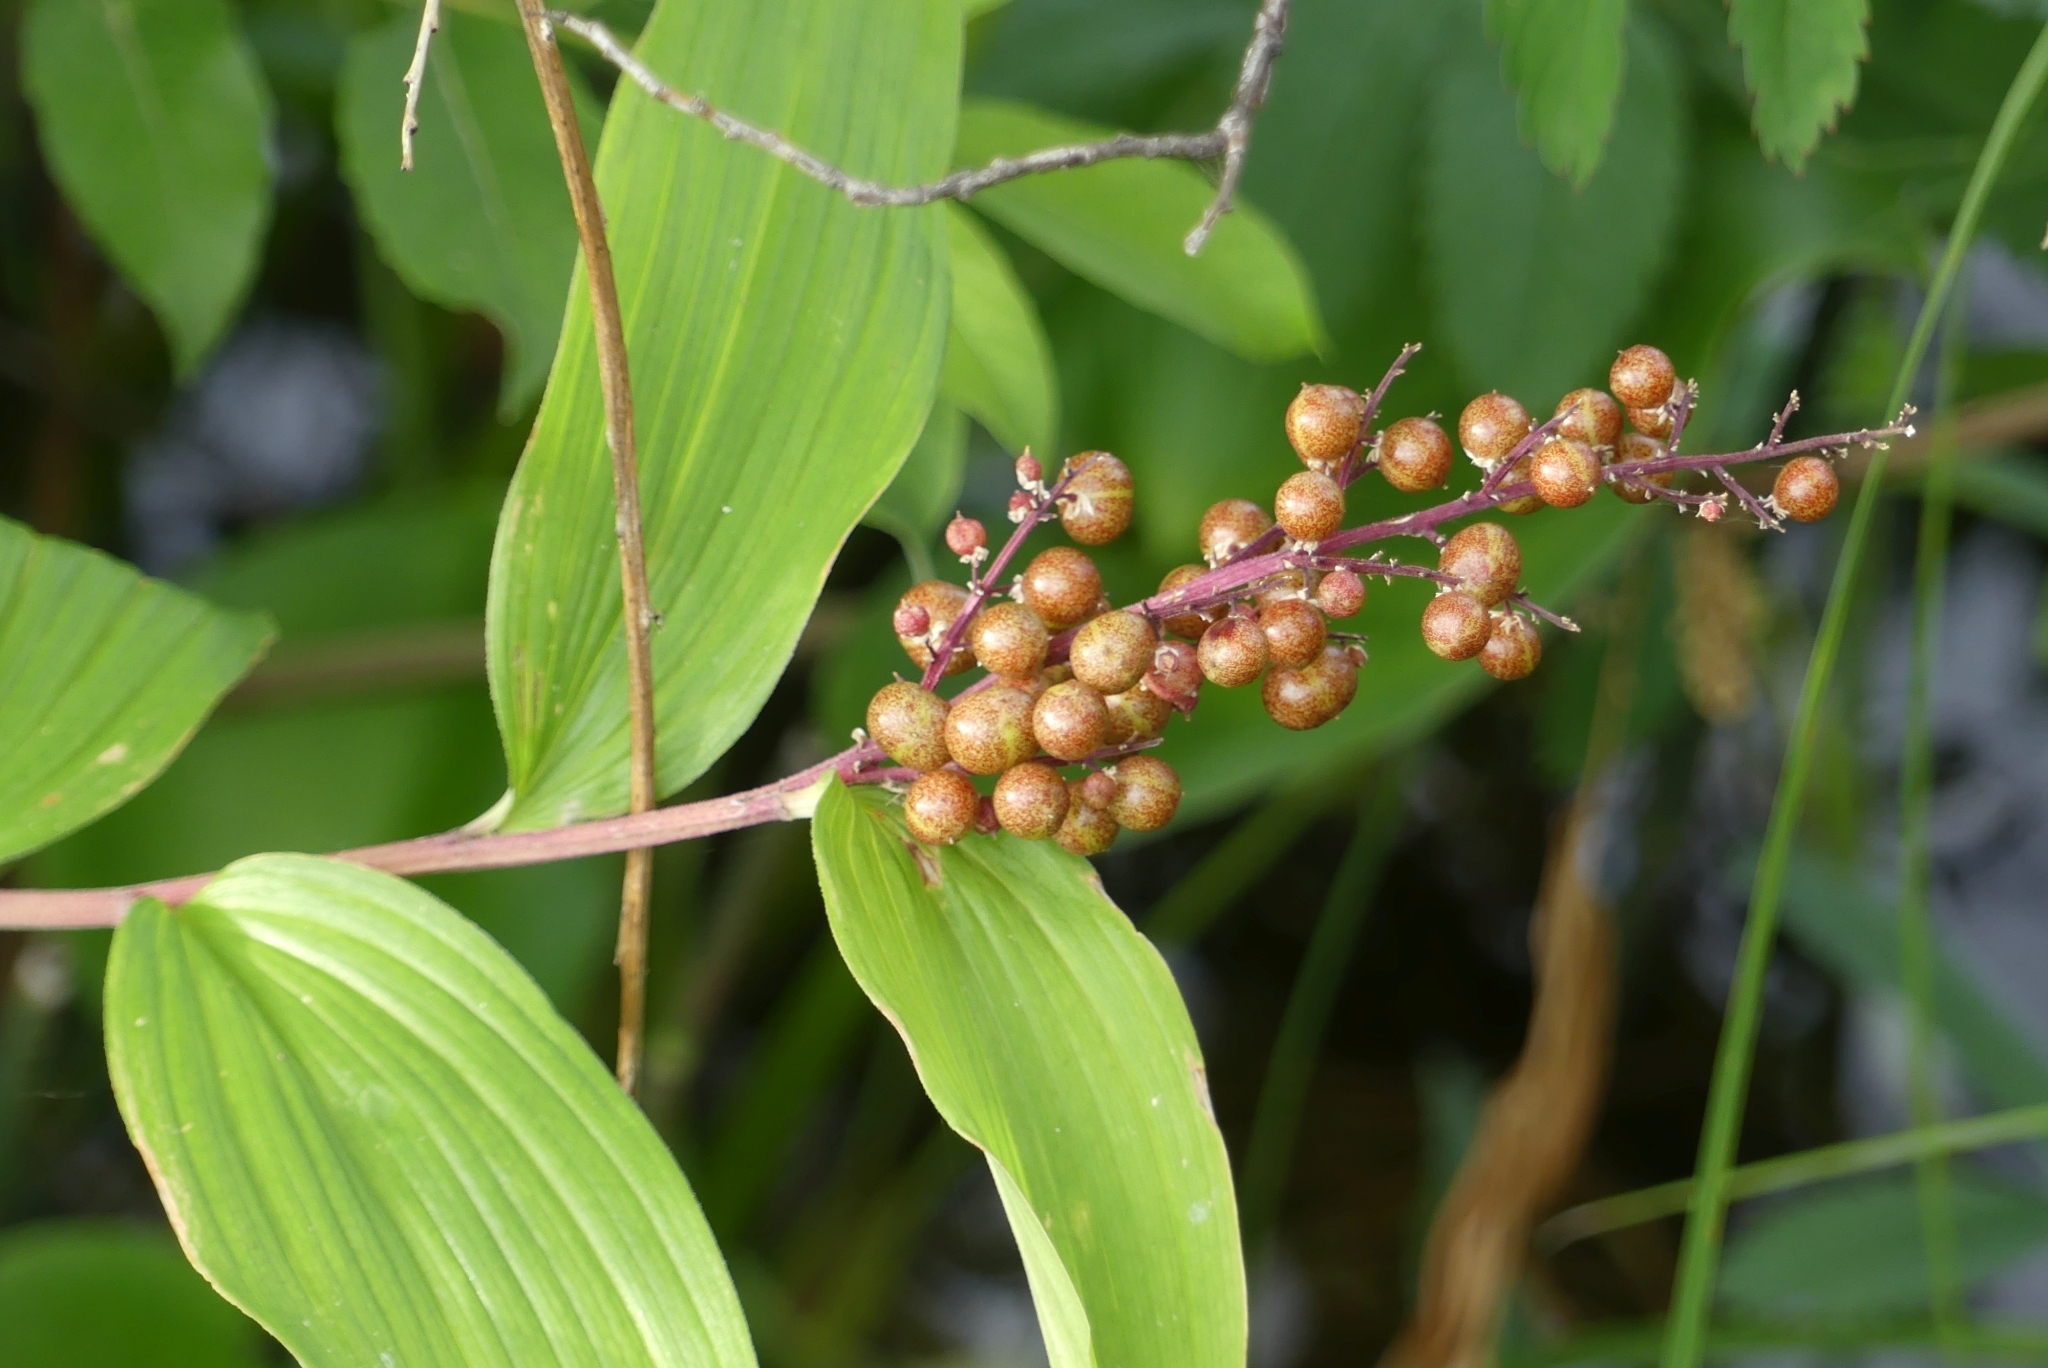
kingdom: Plantae
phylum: Tracheophyta
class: Liliopsida
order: Asparagales
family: Asparagaceae
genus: Maianthemum
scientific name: Maianthemum racemosum
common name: False spikenard
